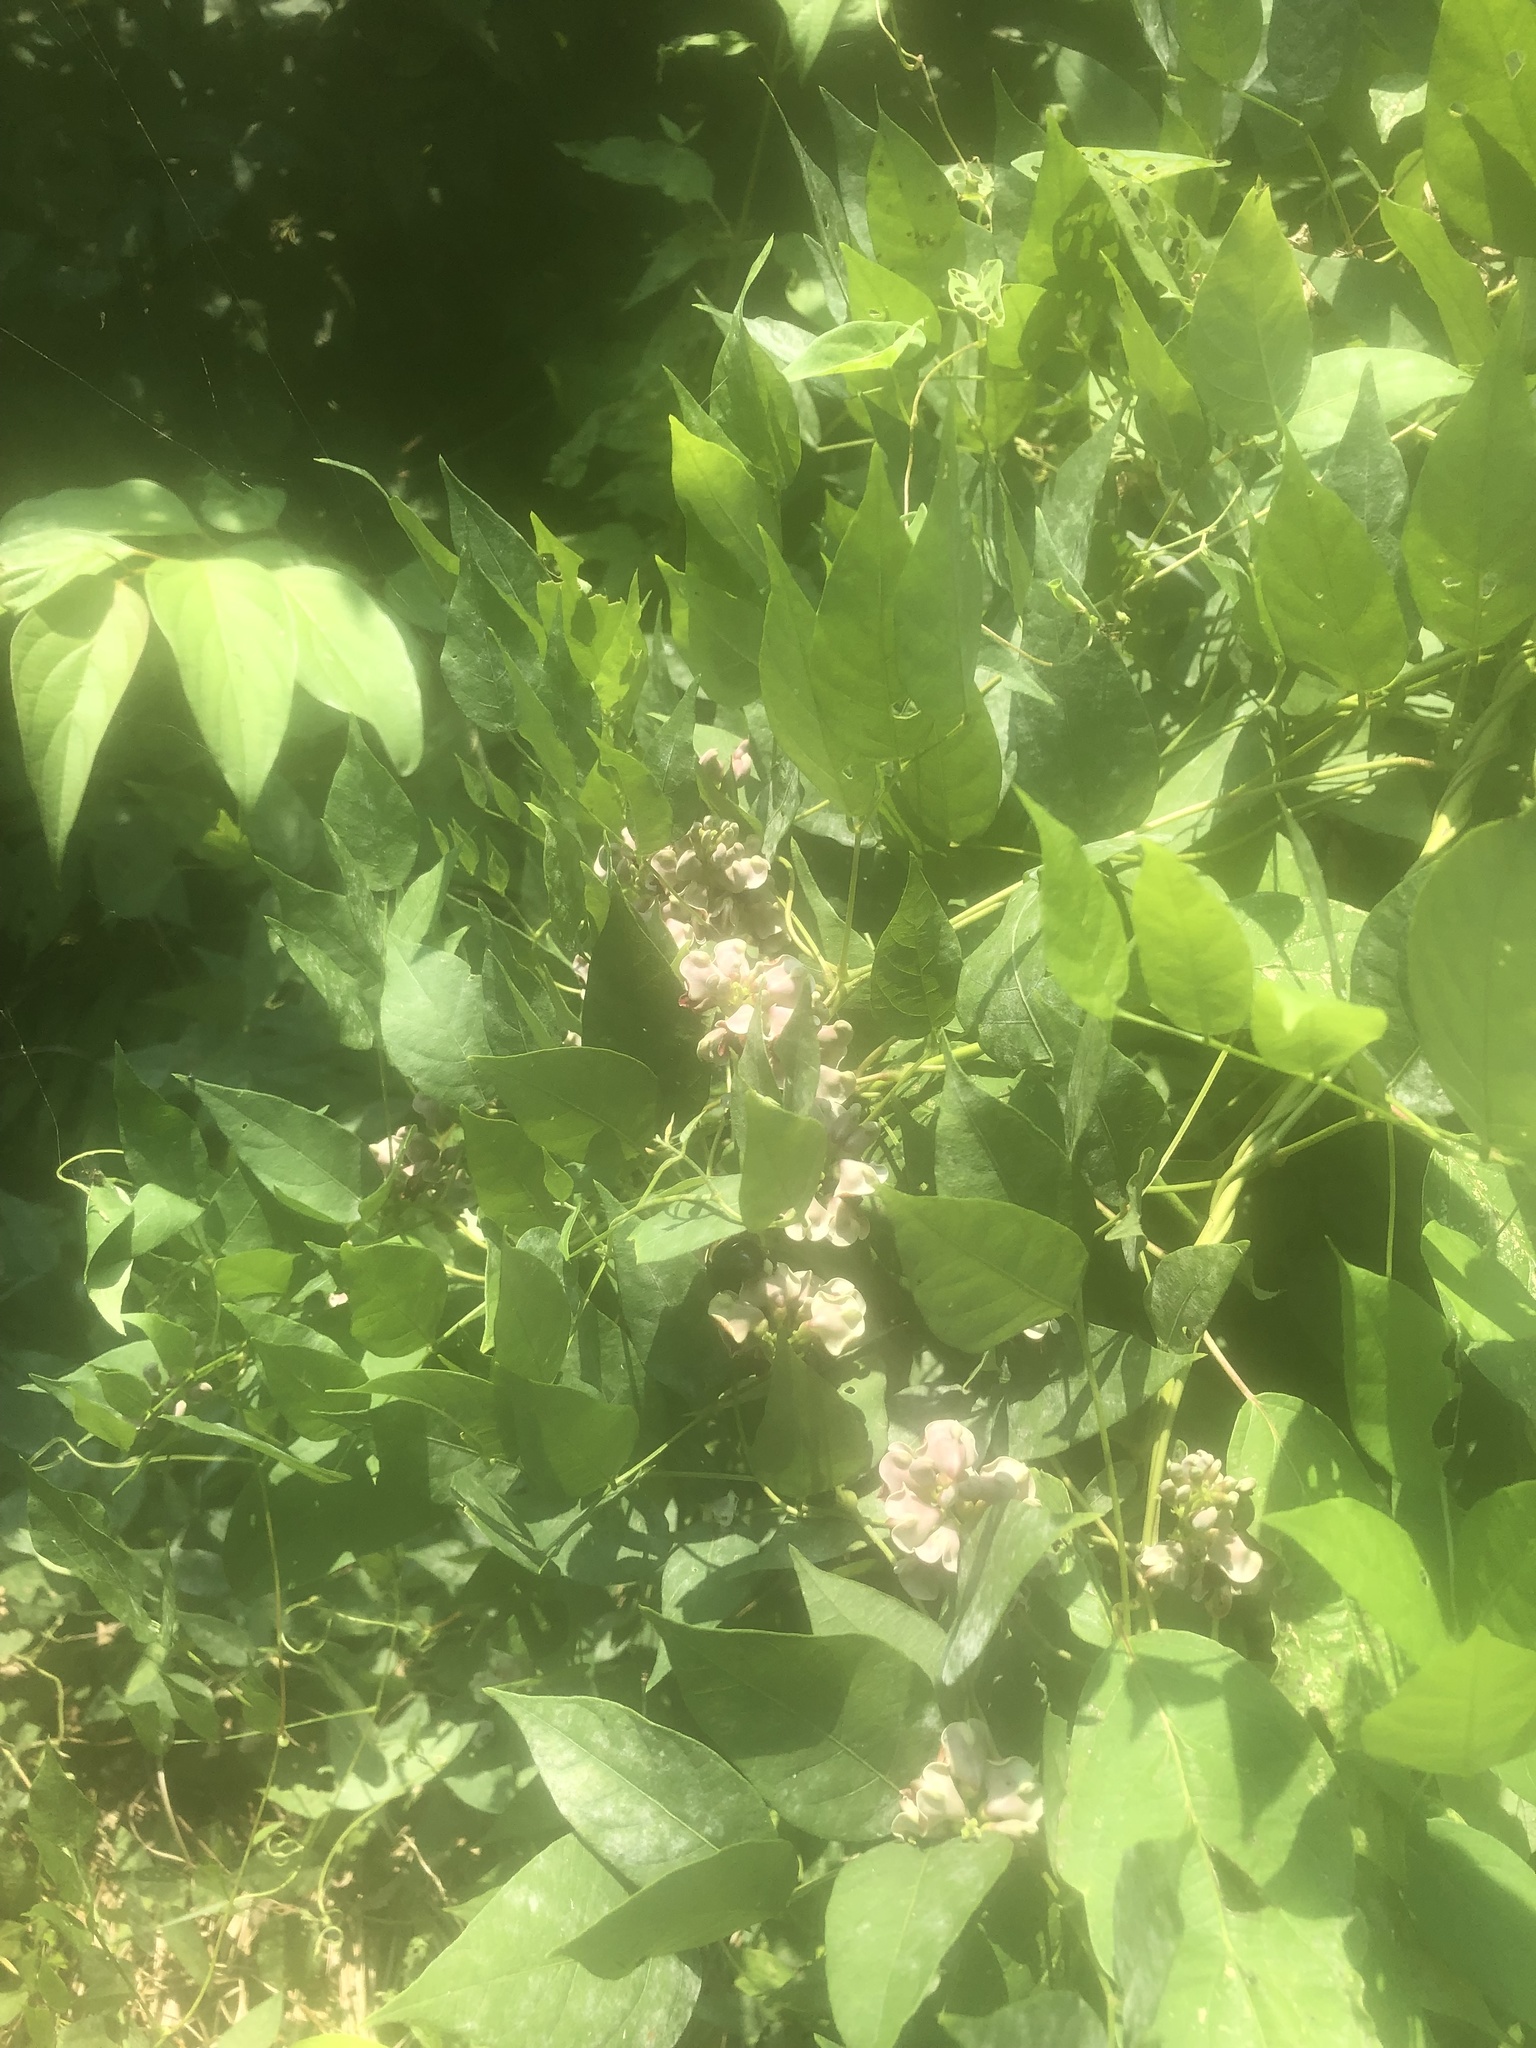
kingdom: Plantae
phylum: Tracheophyta
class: Magnoliopsida
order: Fabales
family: Fabaceae
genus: Apios
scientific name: Apios americana
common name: American potato-bean
